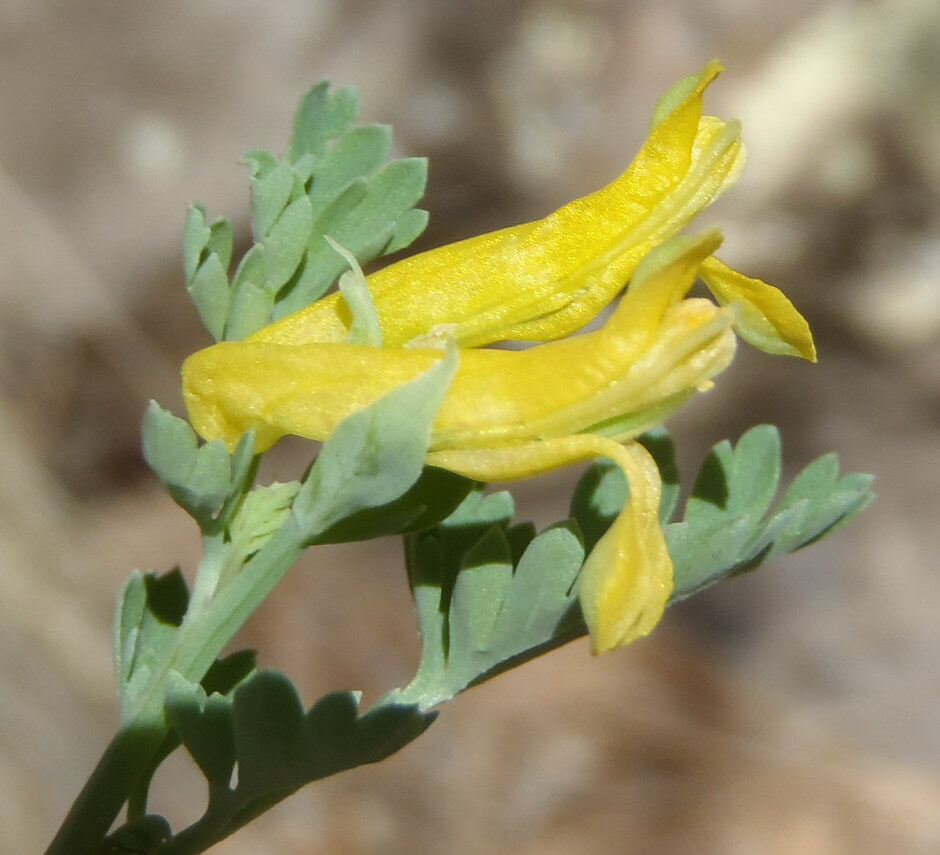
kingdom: Plantae
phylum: Tracheophyta
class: Magnoliopsida
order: Ranunculales
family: Papaveraceae
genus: Corydalis
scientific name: Corydalis aurea
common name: Golden corydalis
